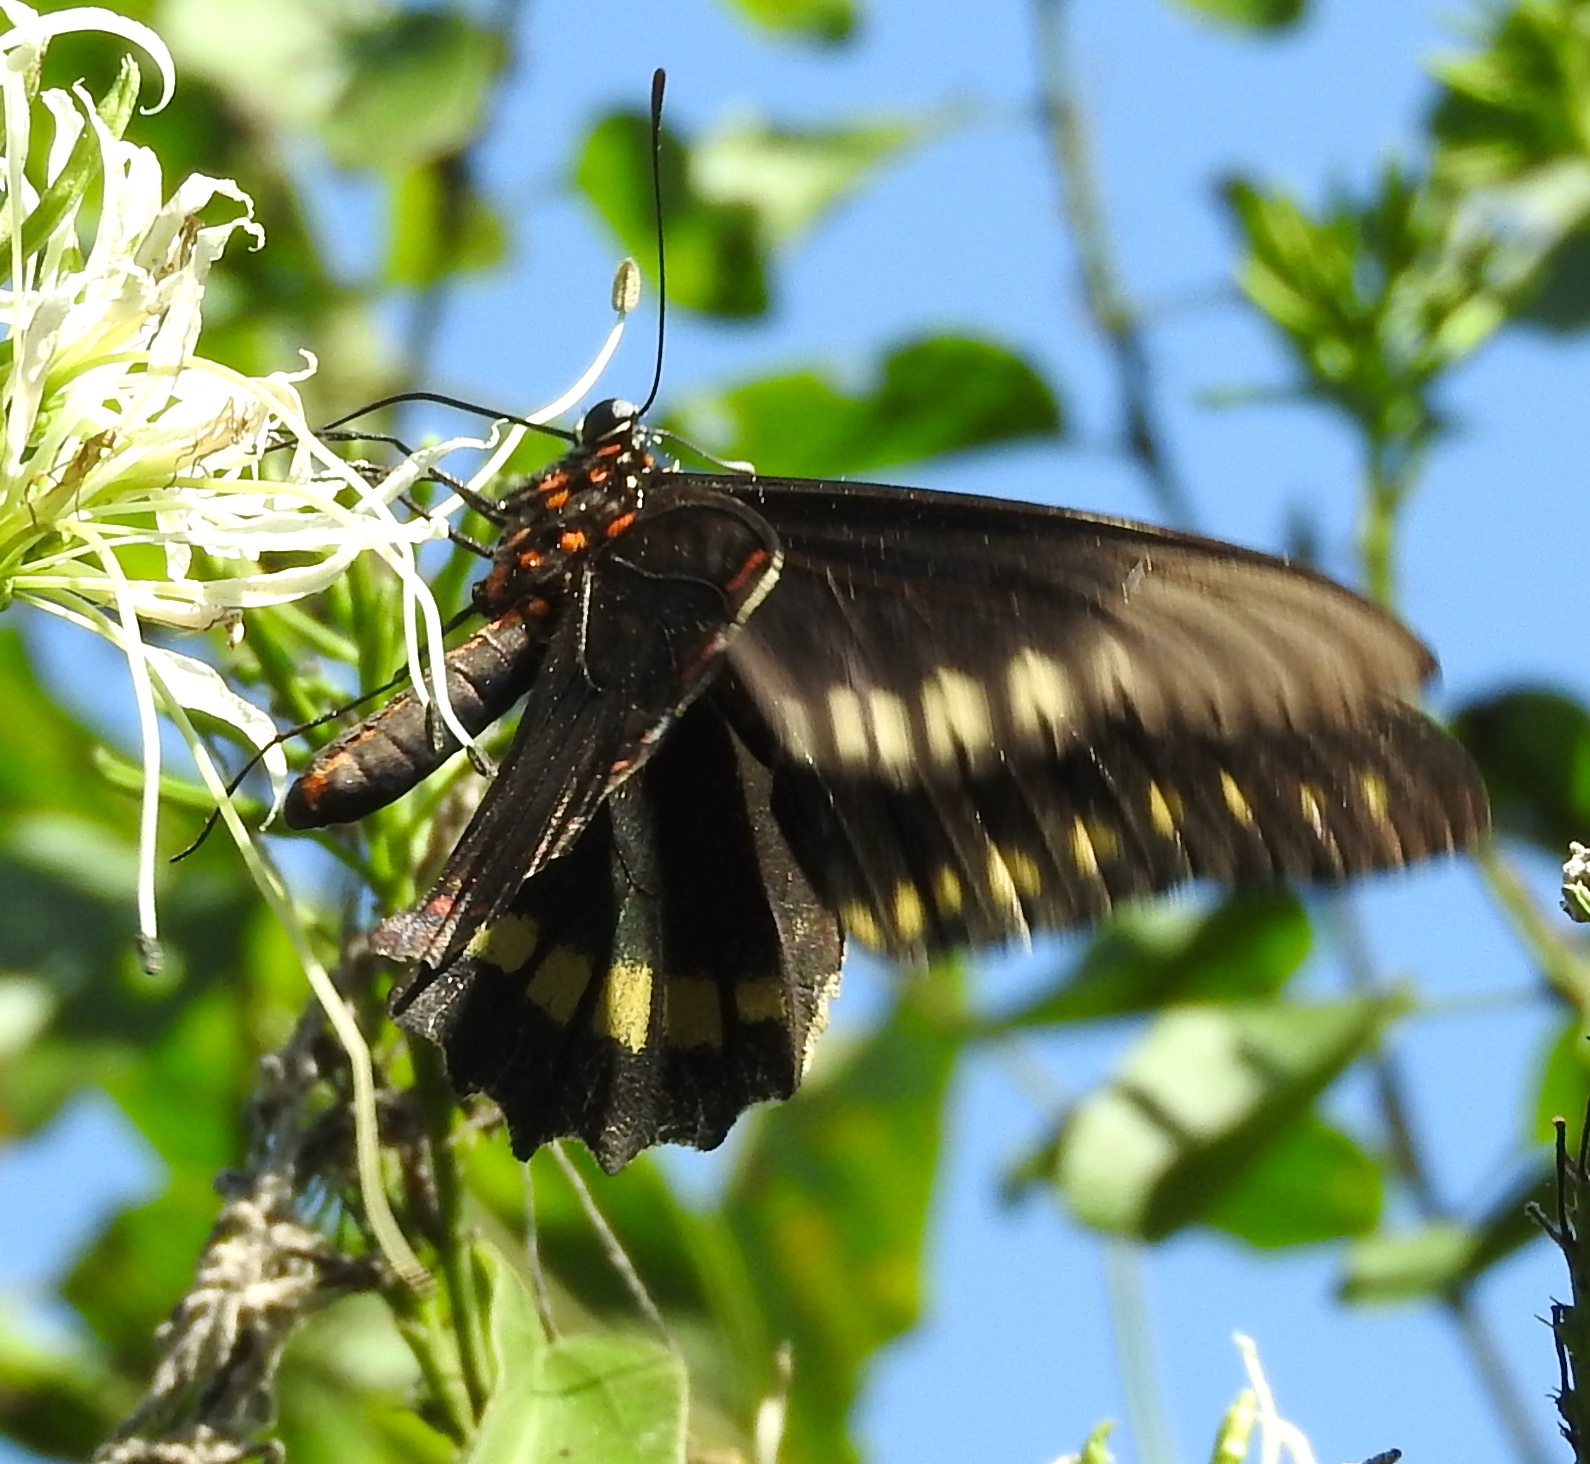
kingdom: Animalia
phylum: Arthropoda
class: Insecta
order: Lepidoptera
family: Papilionidae
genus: Battus
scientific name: Battus polydamas
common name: Polydamas swallowtail
